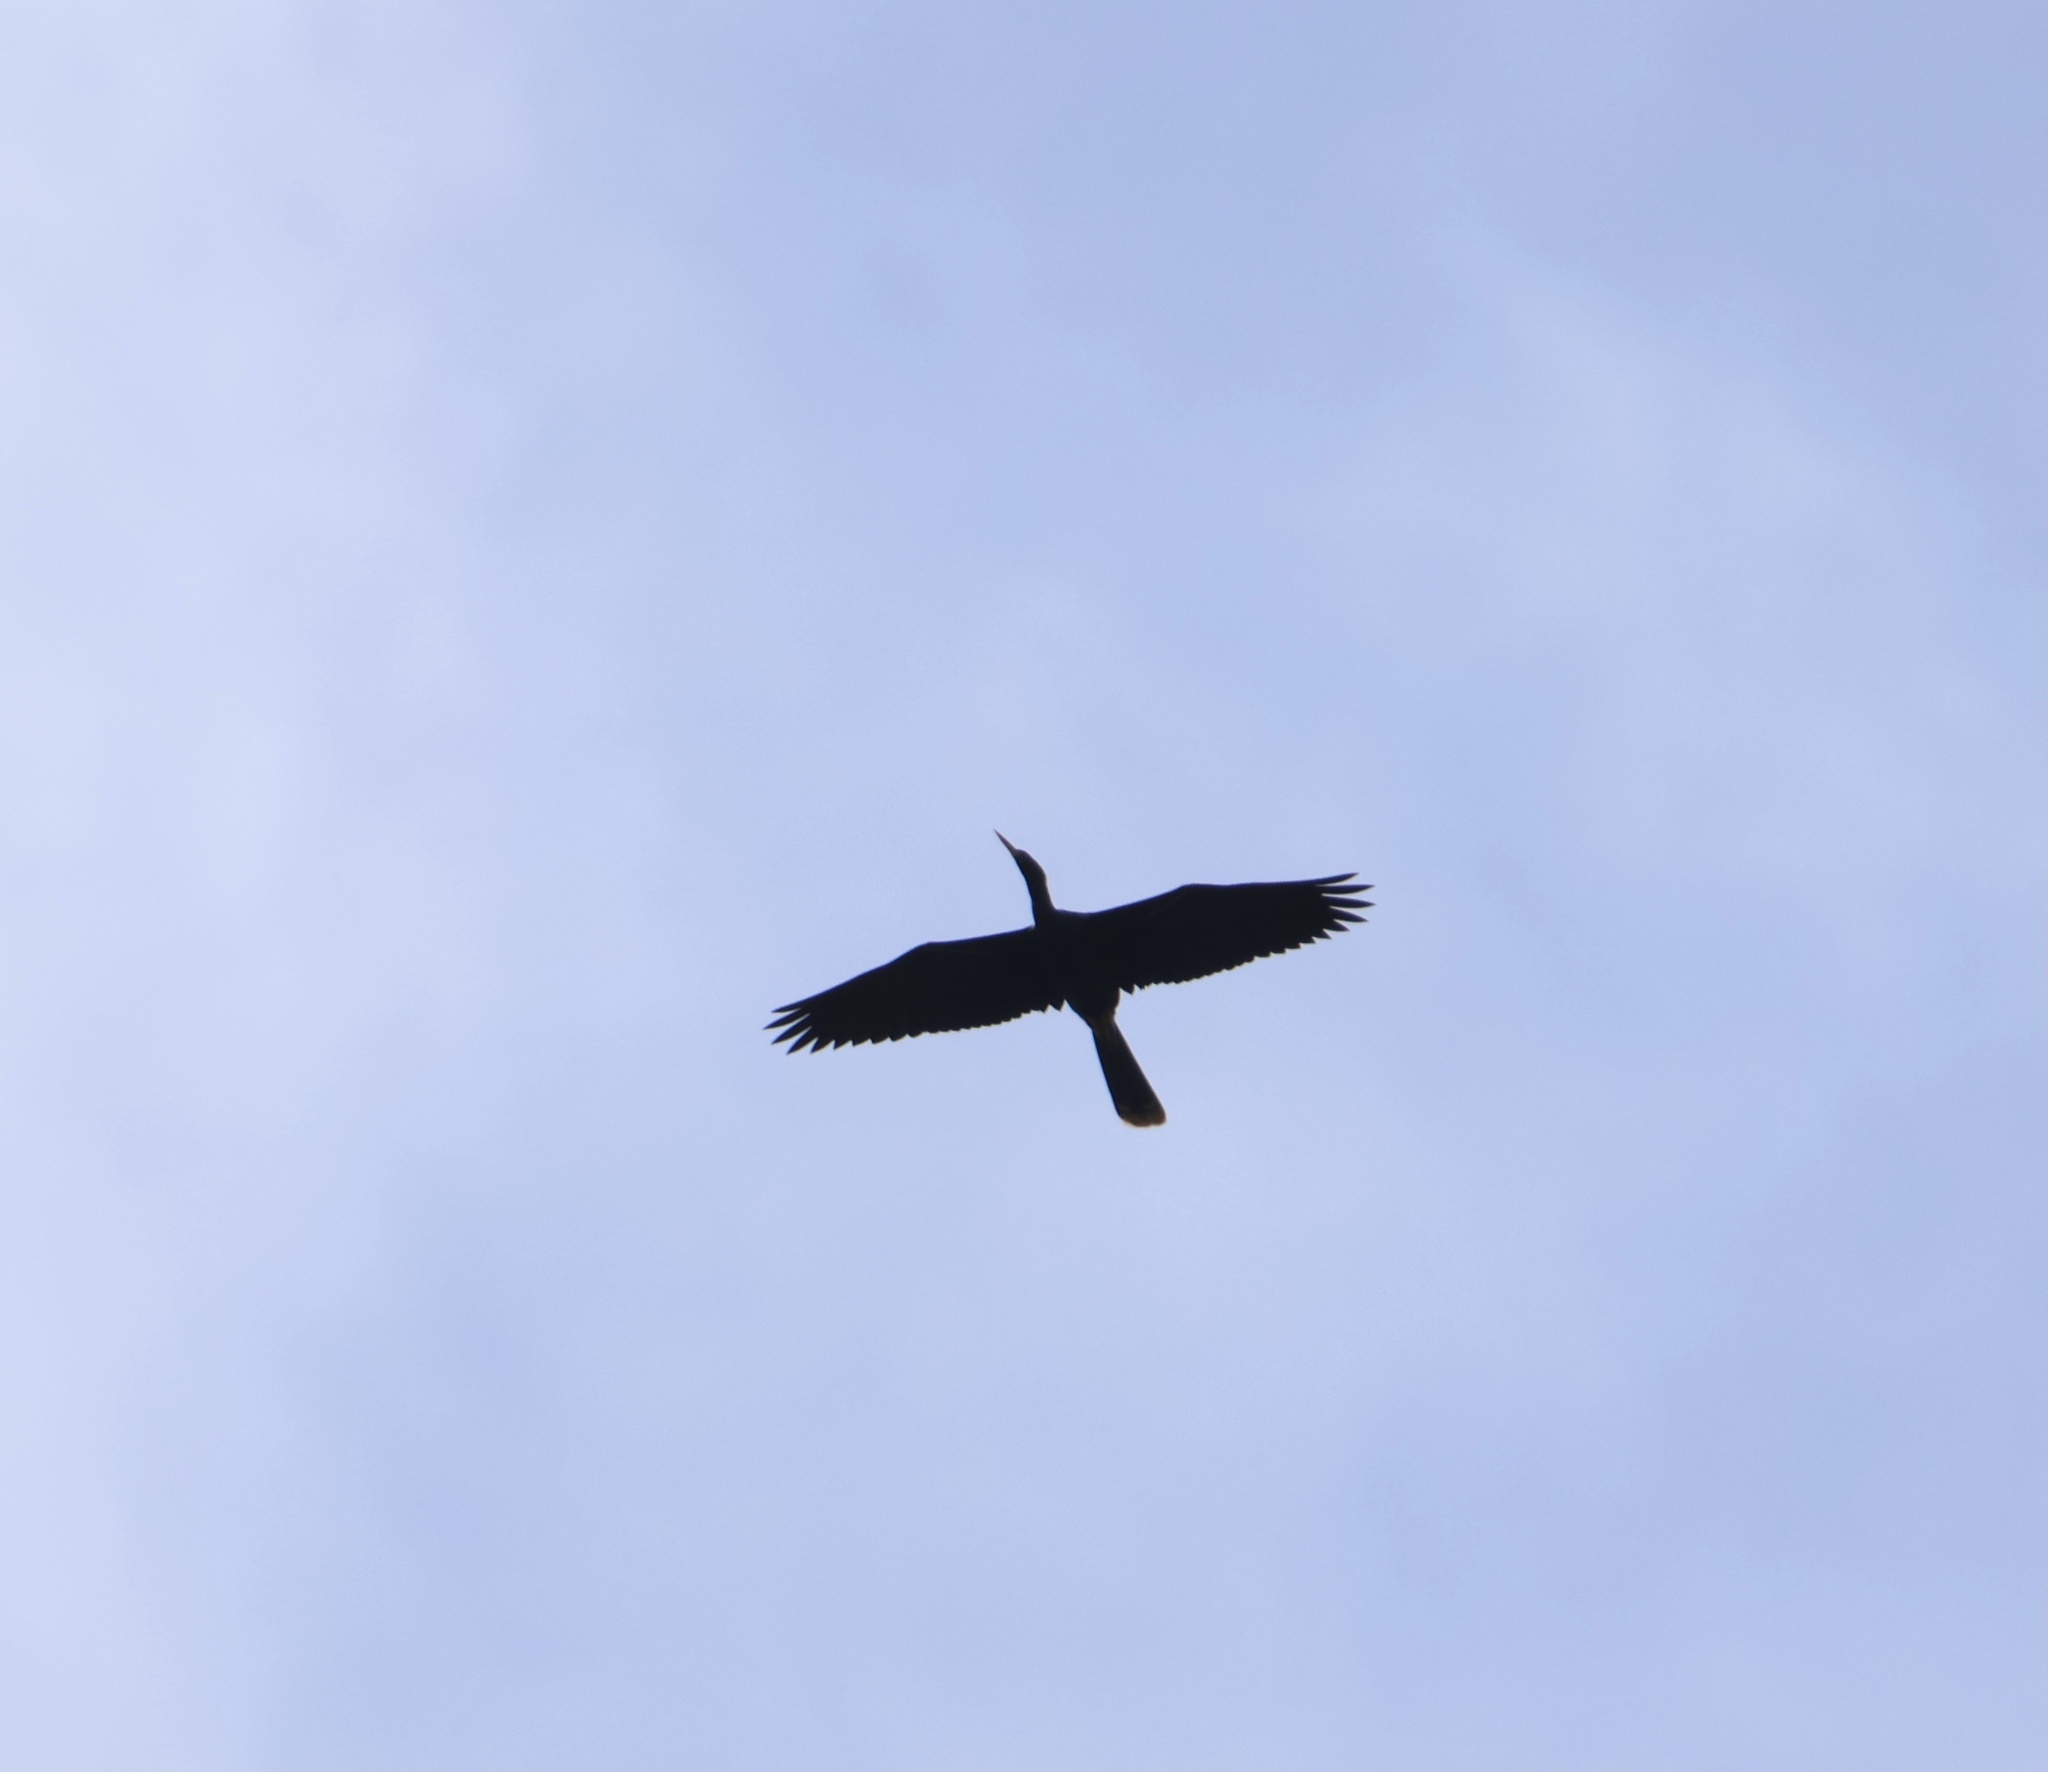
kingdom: Animalia
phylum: Chordata
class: Aves
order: Suliformes
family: Anhingidae
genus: Anhinga
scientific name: Anhinga anhinga
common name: Anhinga
